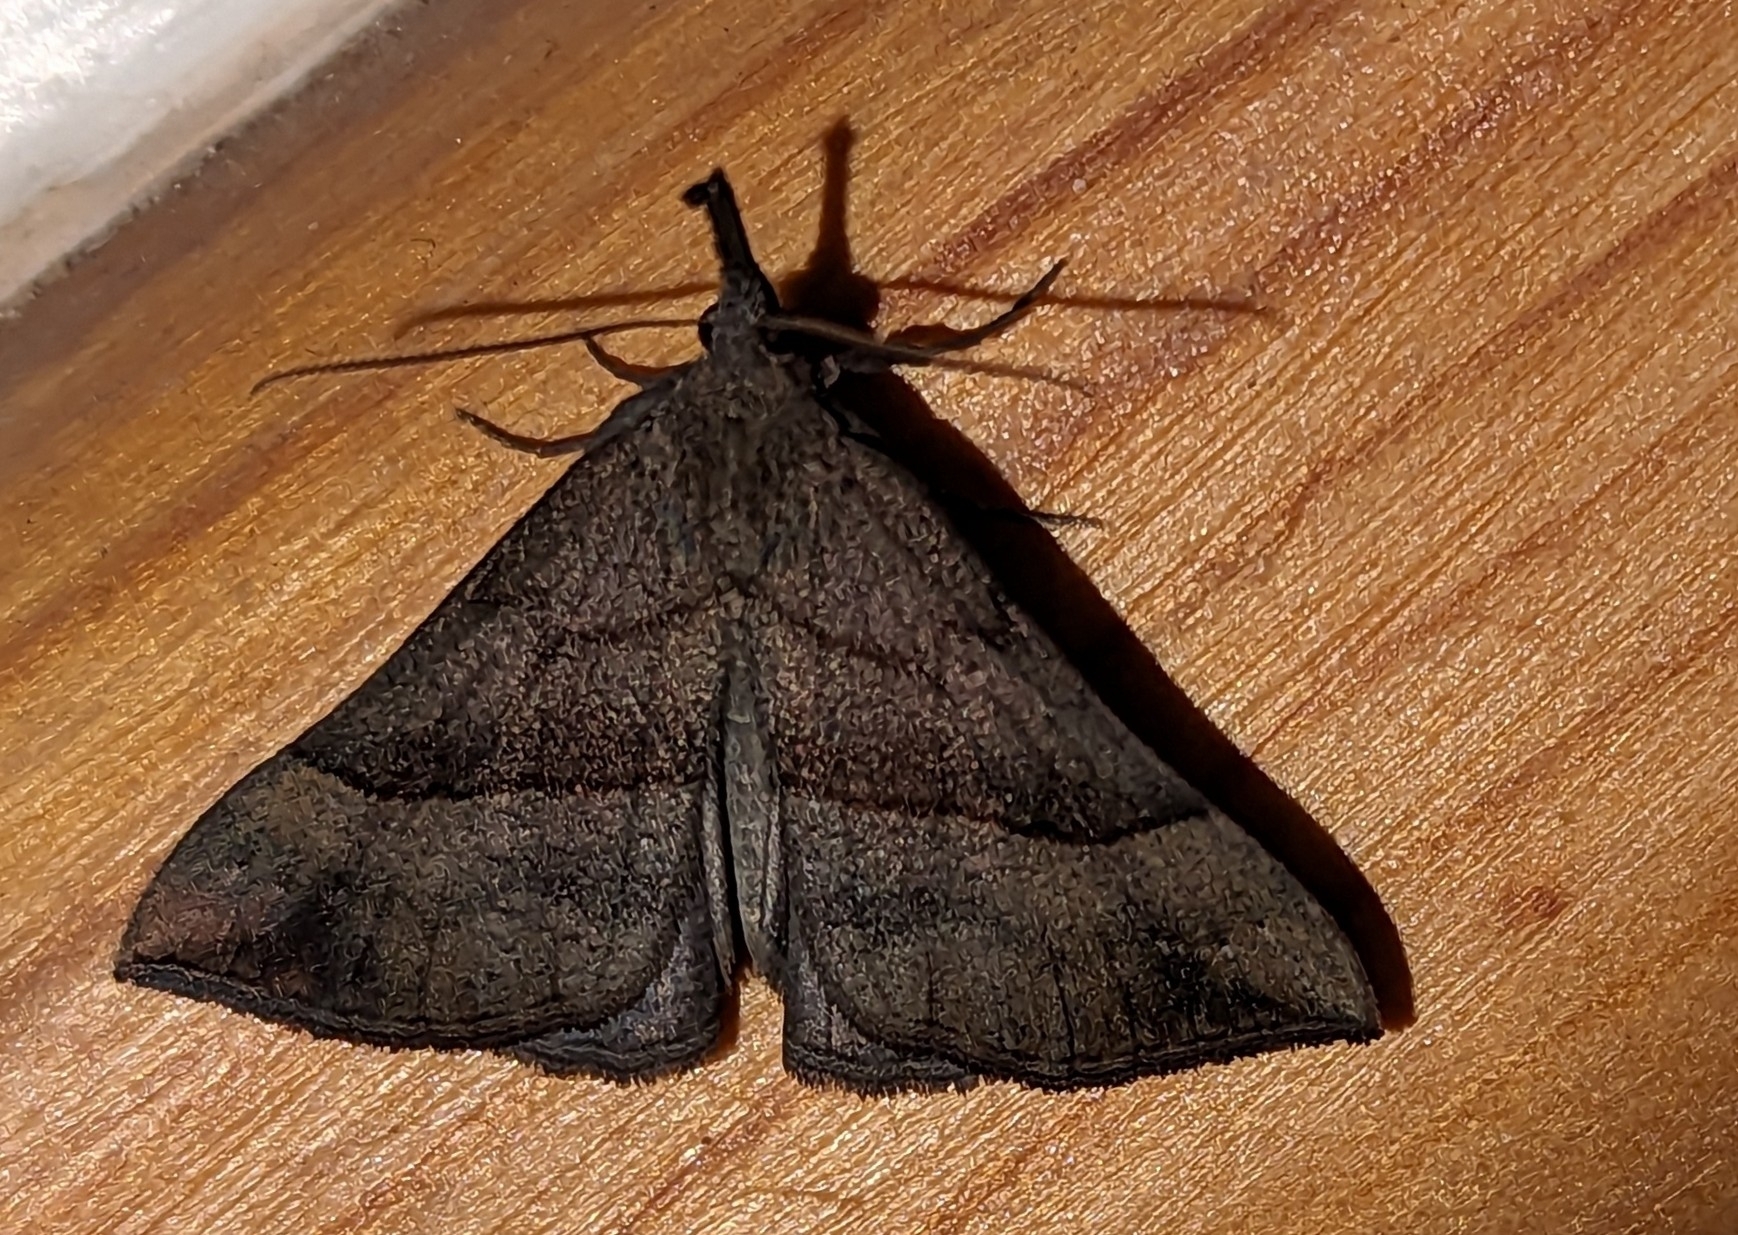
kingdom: Animalia
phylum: Arthropoda
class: Insecta
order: Lepidoptera
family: Erebidae
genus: Hypena
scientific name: Hypena proboscidalis
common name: Snout
